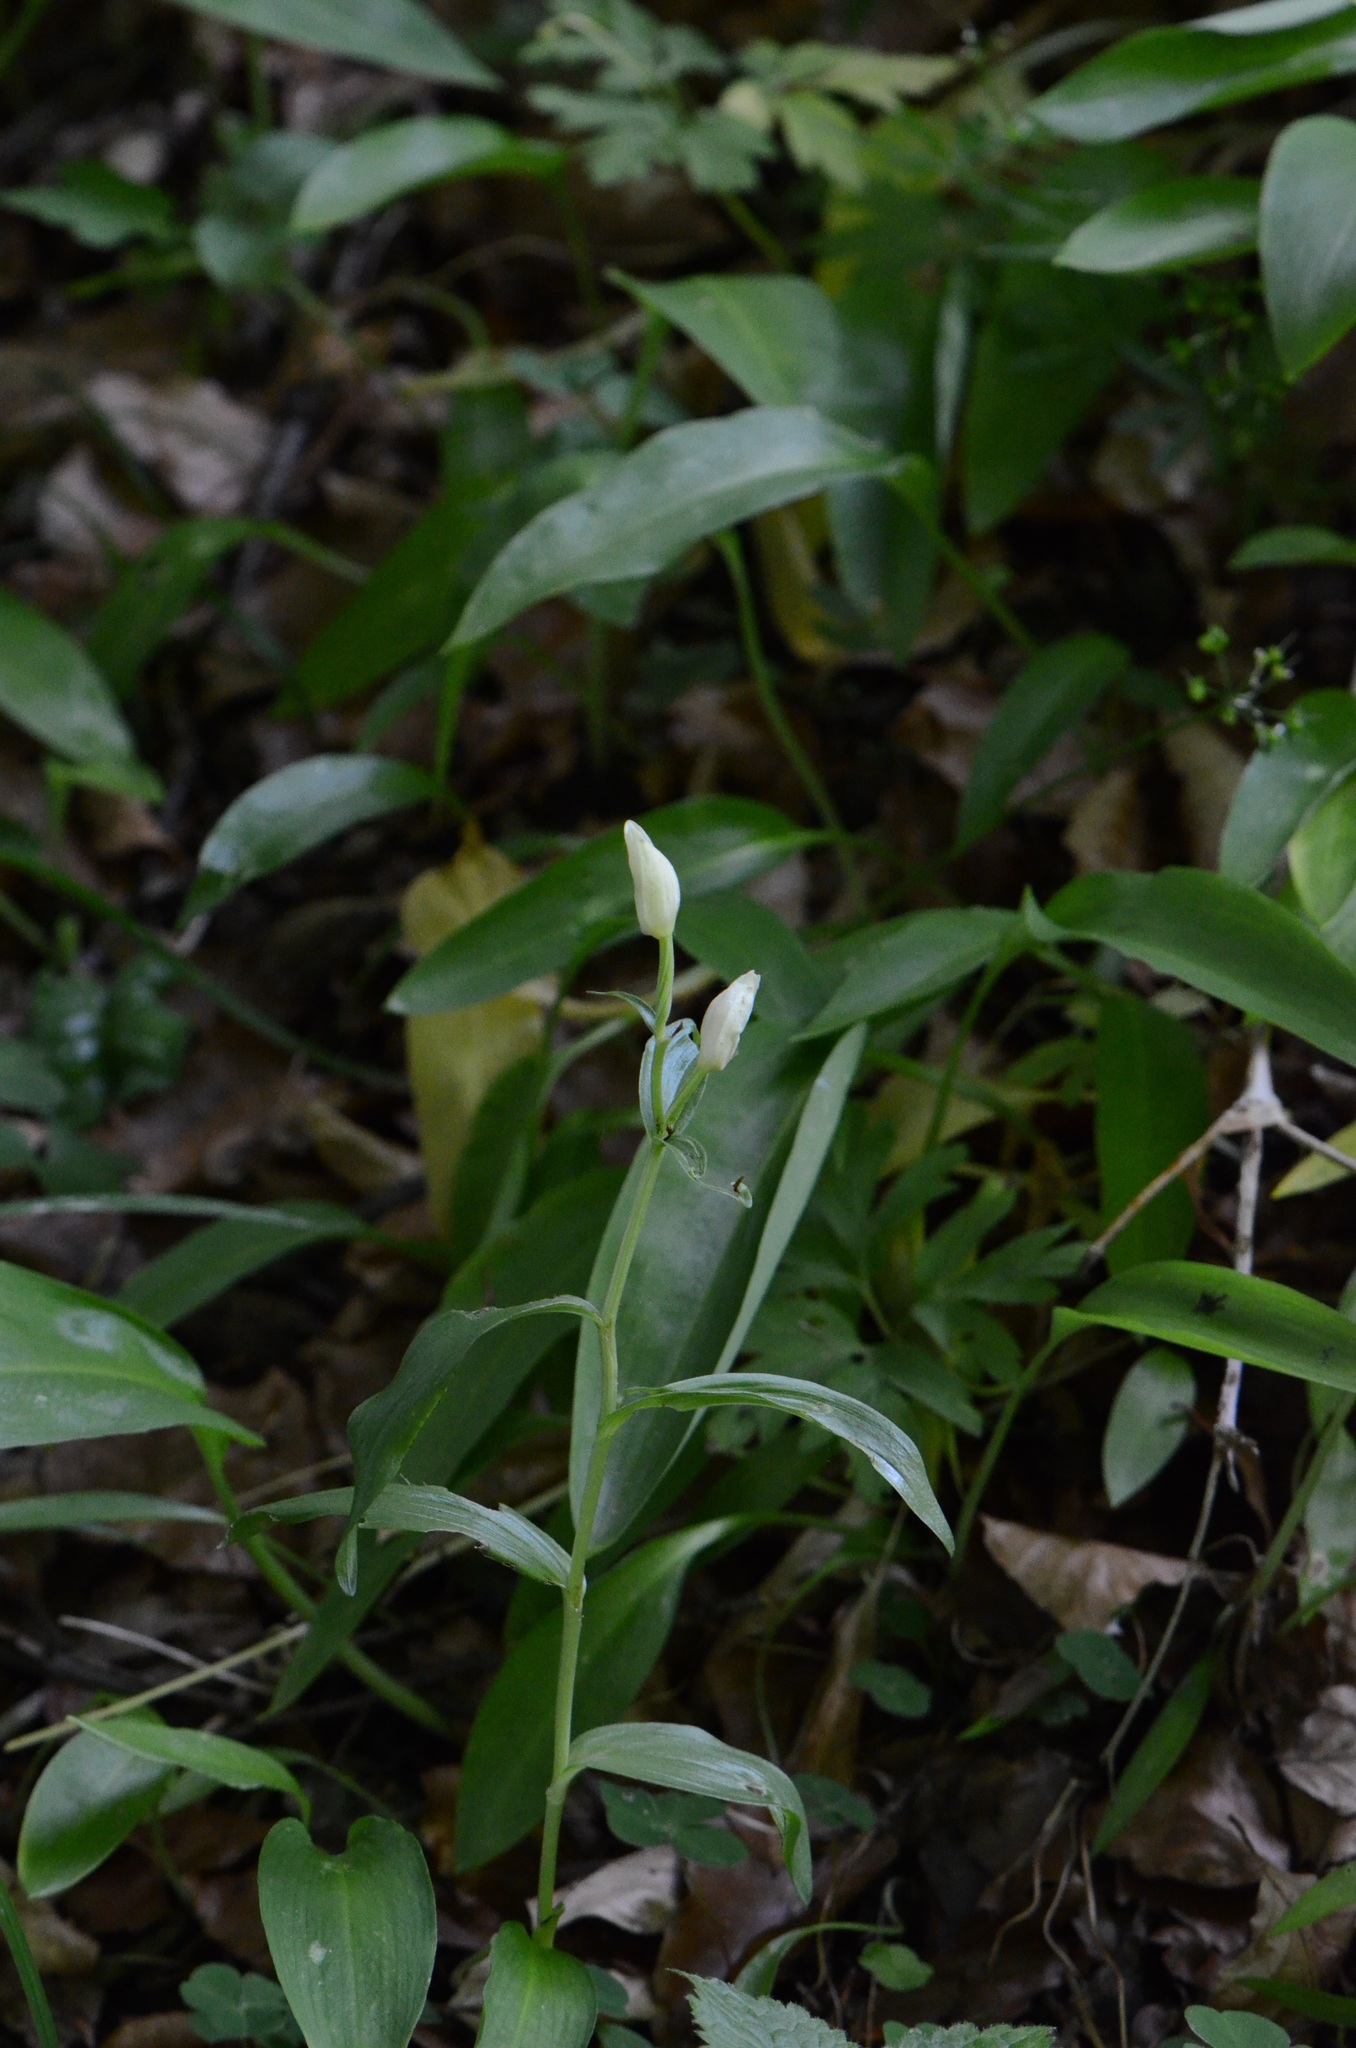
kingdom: Plantae
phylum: Tracheophyta
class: Liliopsida
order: Asparagales
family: Orchidaceae
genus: Cephalanthera
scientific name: Cephalanthera damasonium
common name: White helleborine
